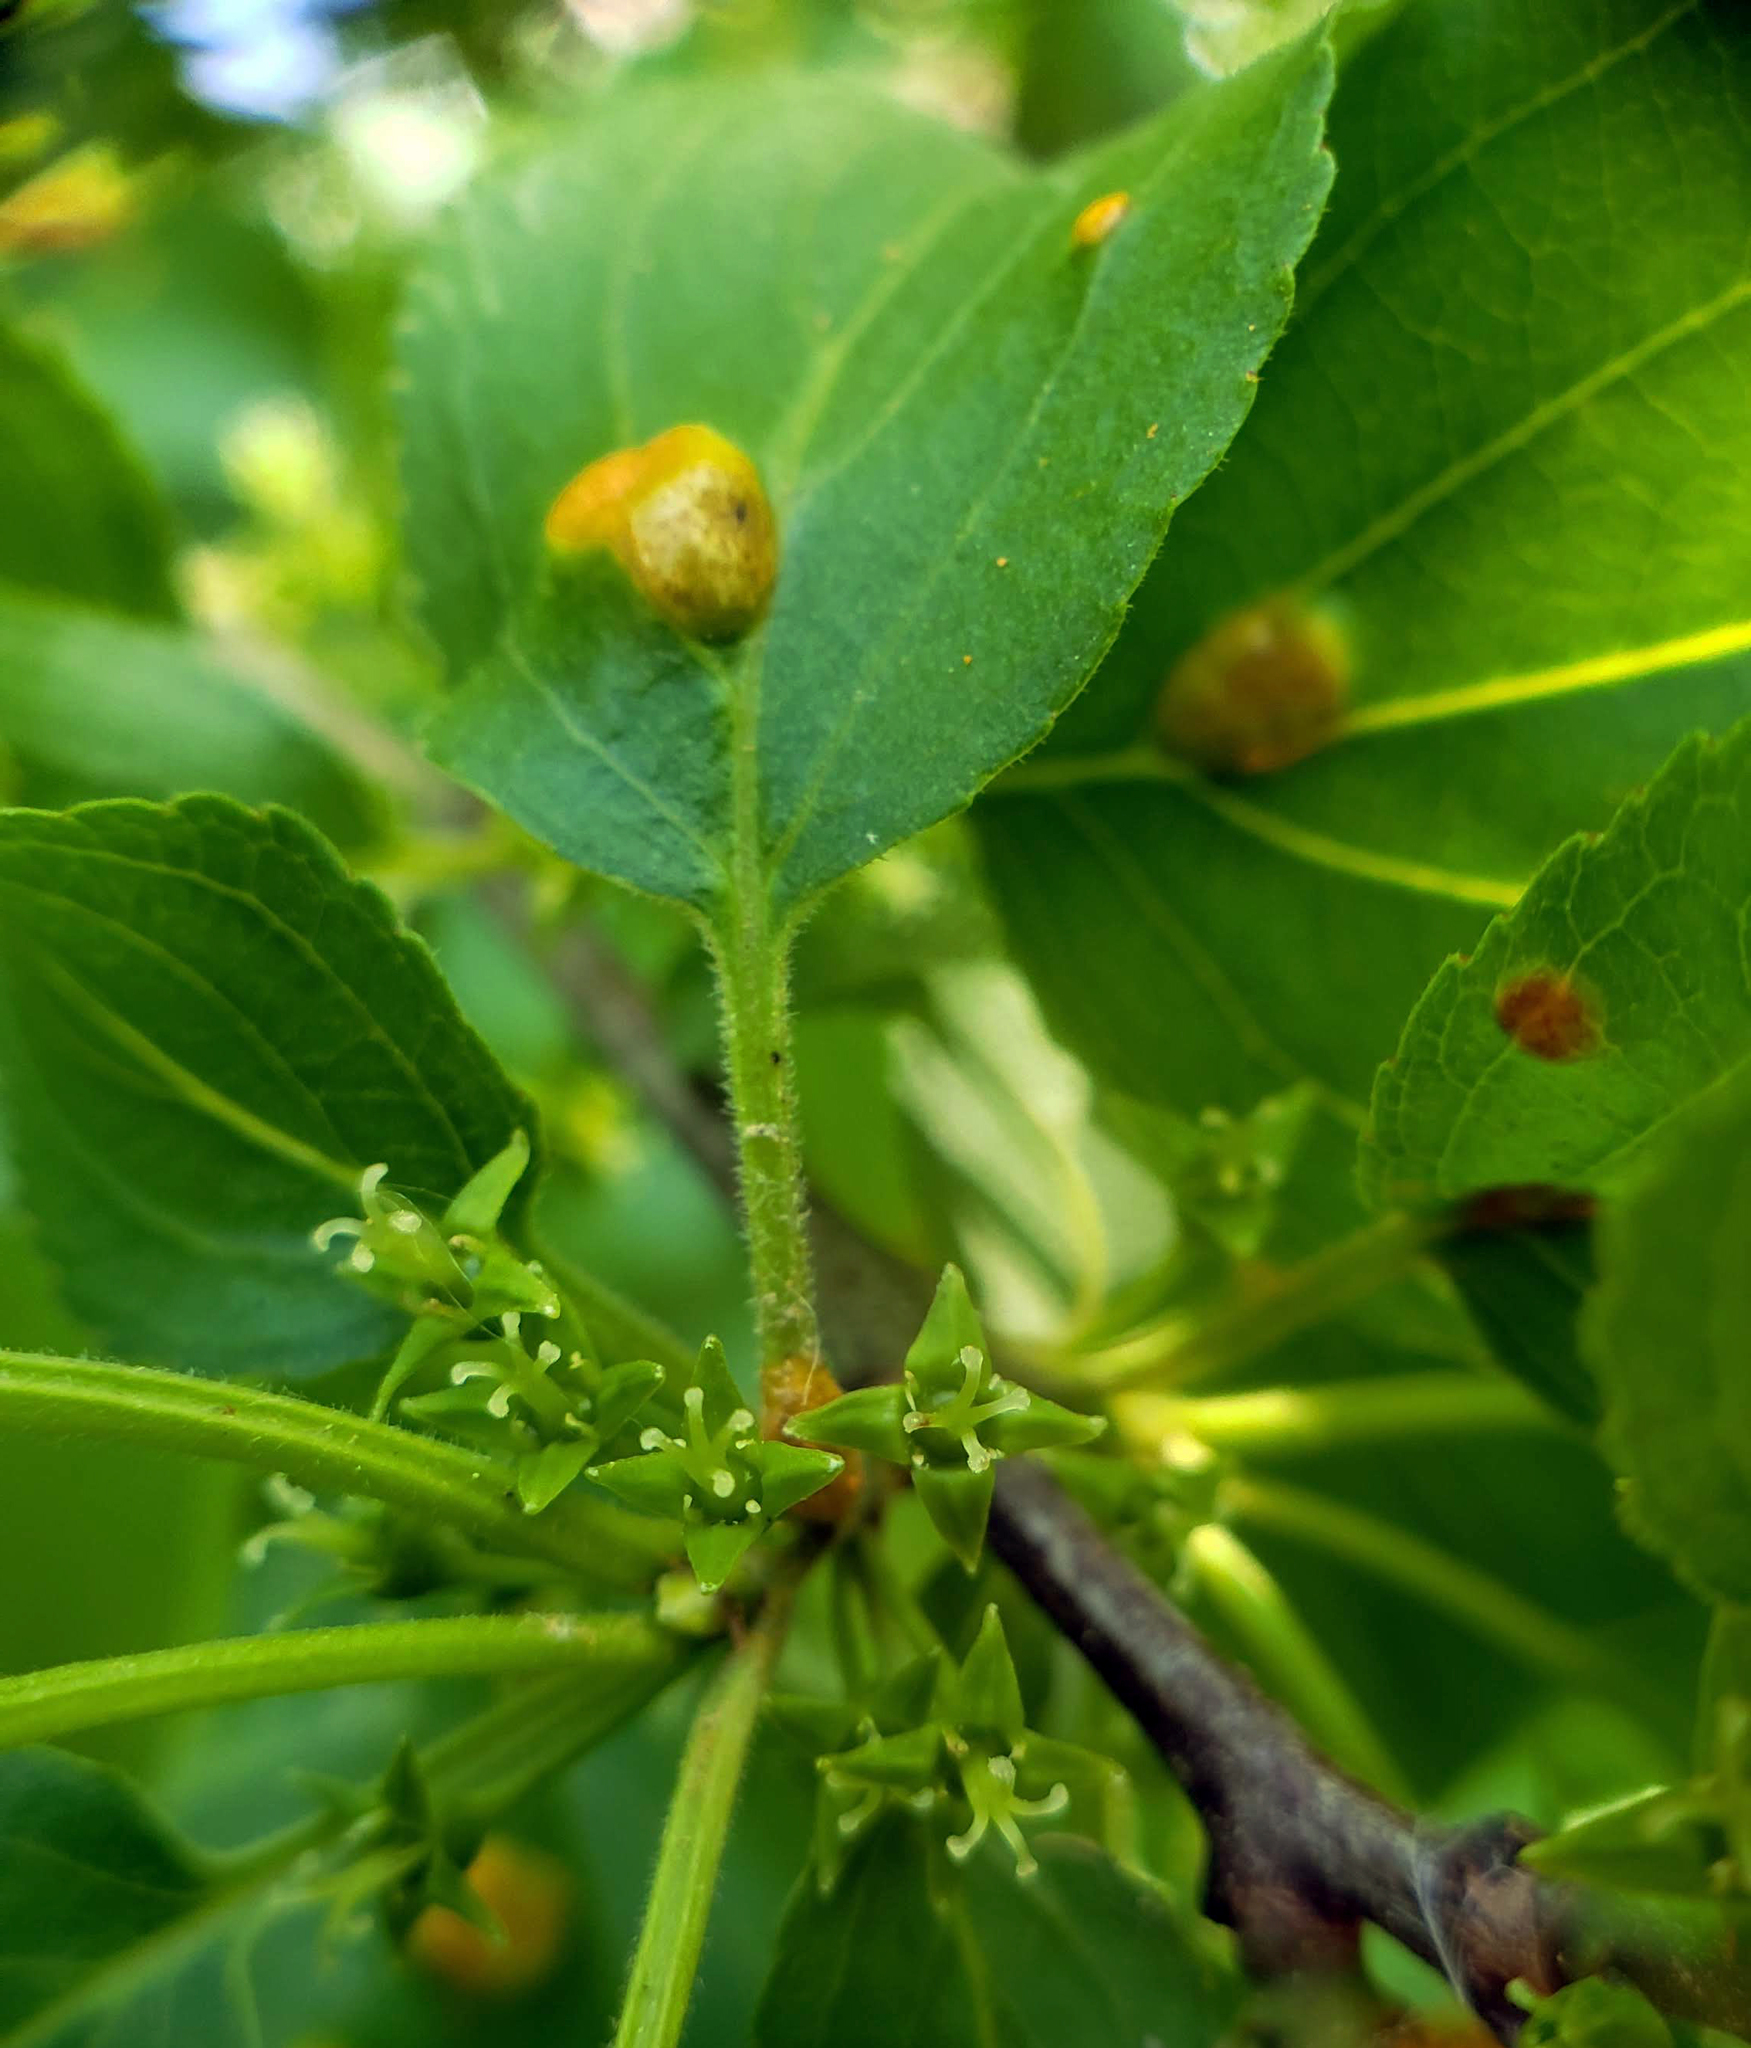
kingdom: Plantae
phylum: Tracheophyta
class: Magnoliopsida
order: Rosales
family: Rhamnaceae
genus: Rhamnus
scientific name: Rhamnus cathartica
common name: Common buckthorn
